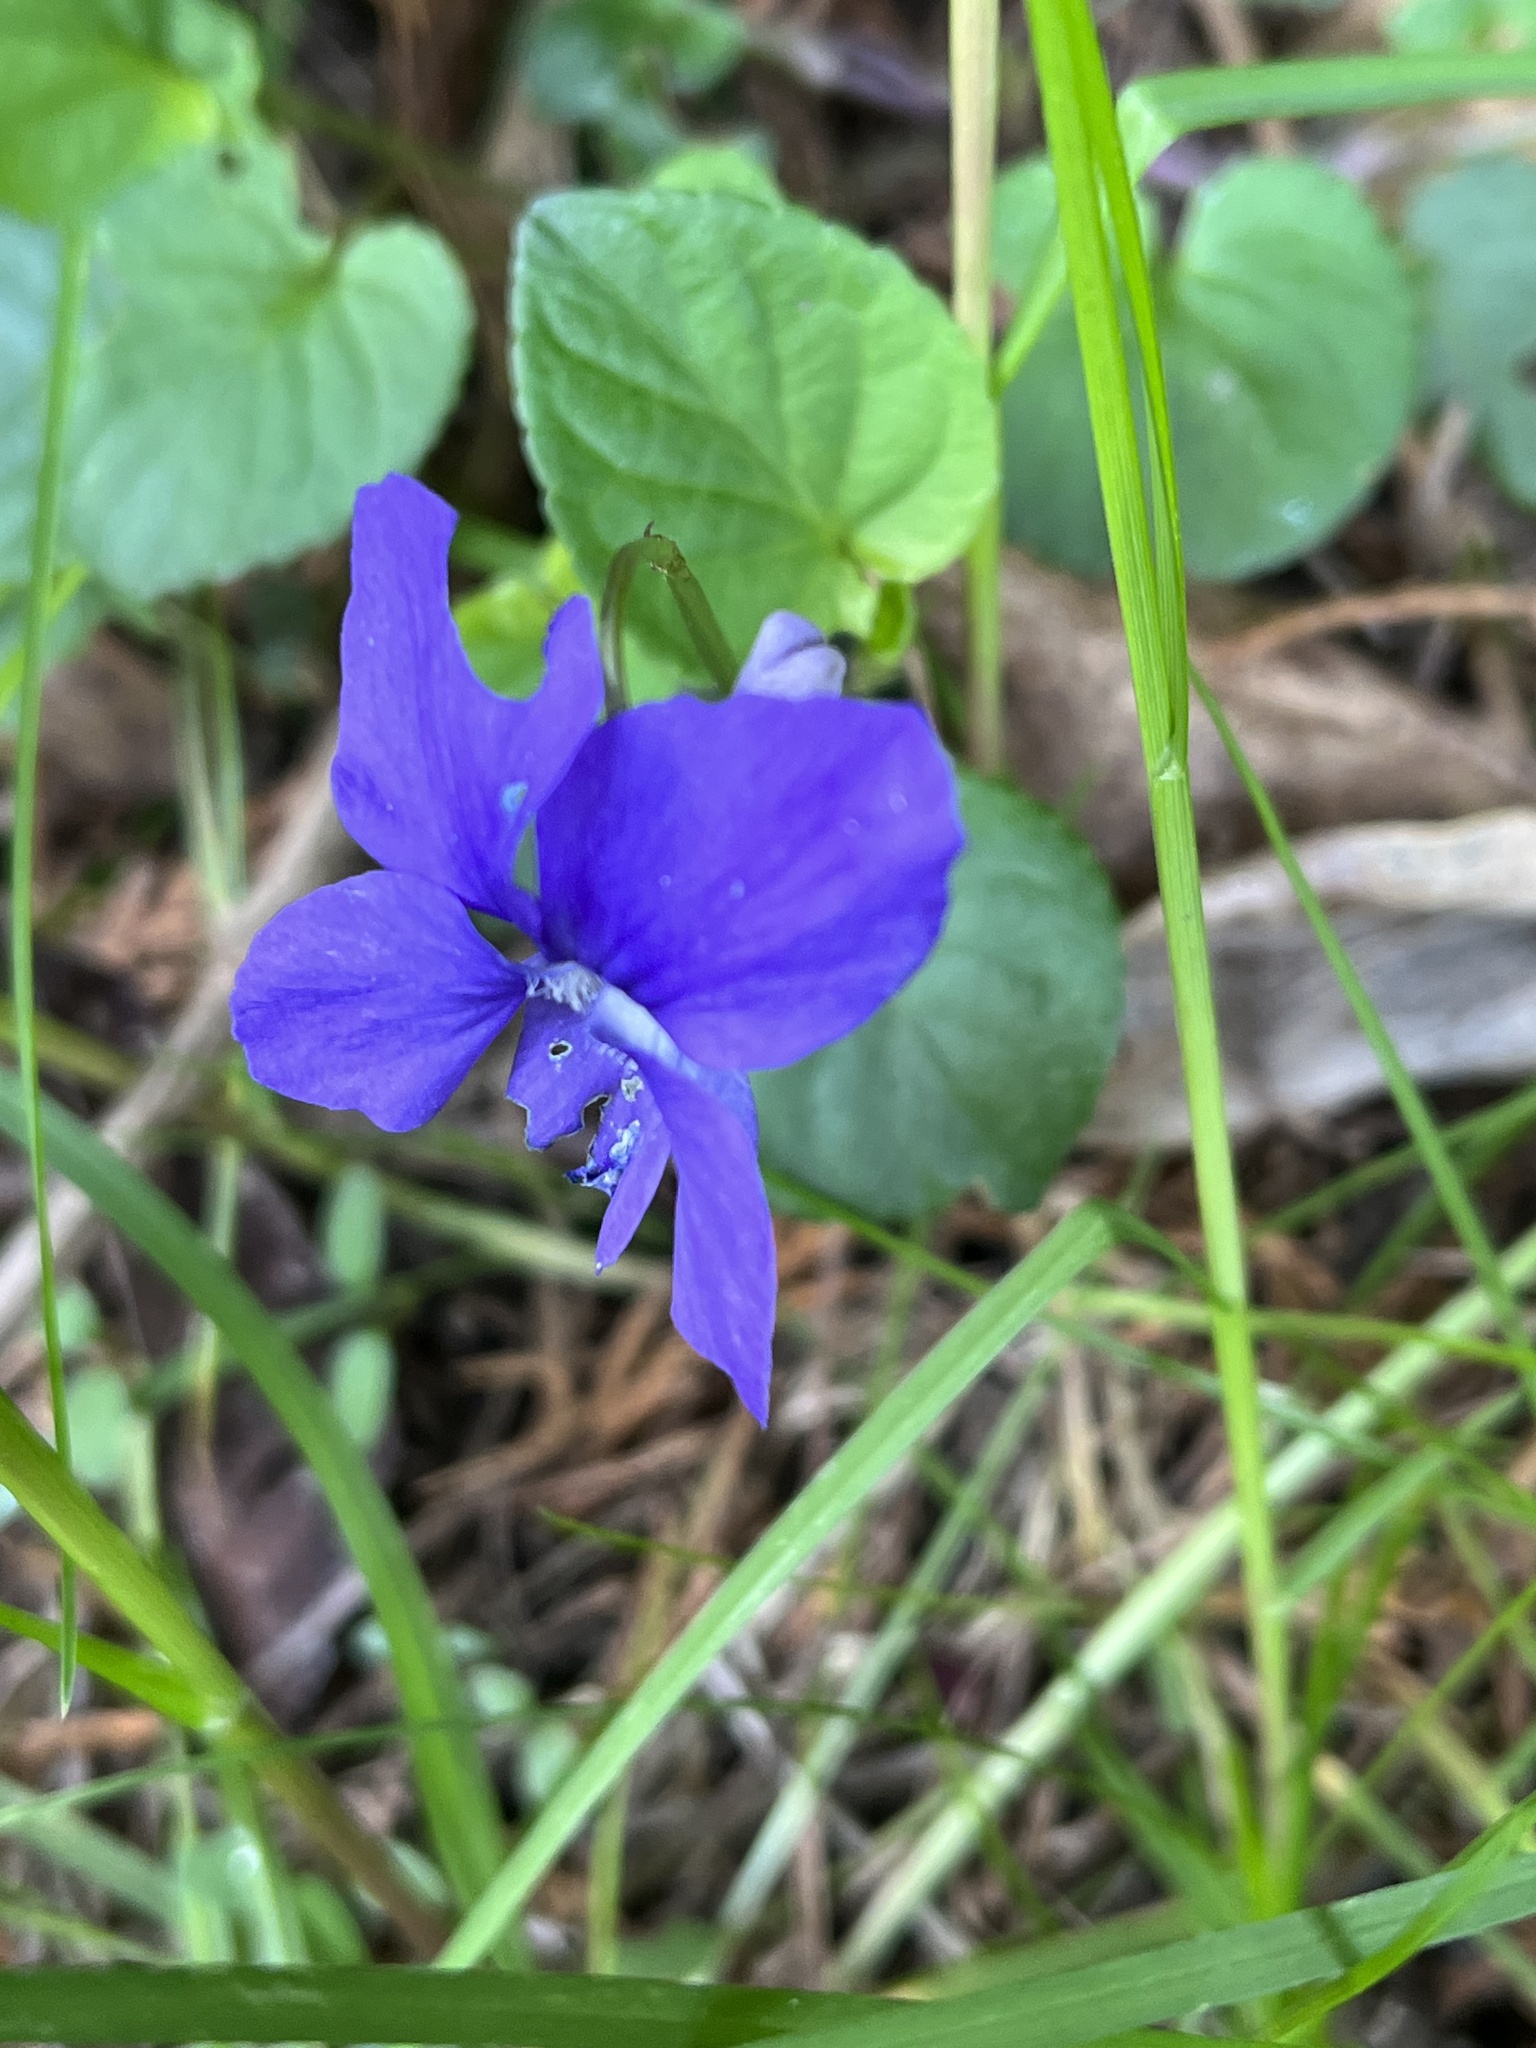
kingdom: Plantae
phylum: Tracheophyta
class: Magnoliopsida
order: Malpighiales
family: Violaceae
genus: Viola
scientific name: Viola riviniana
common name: Common dog-violet
